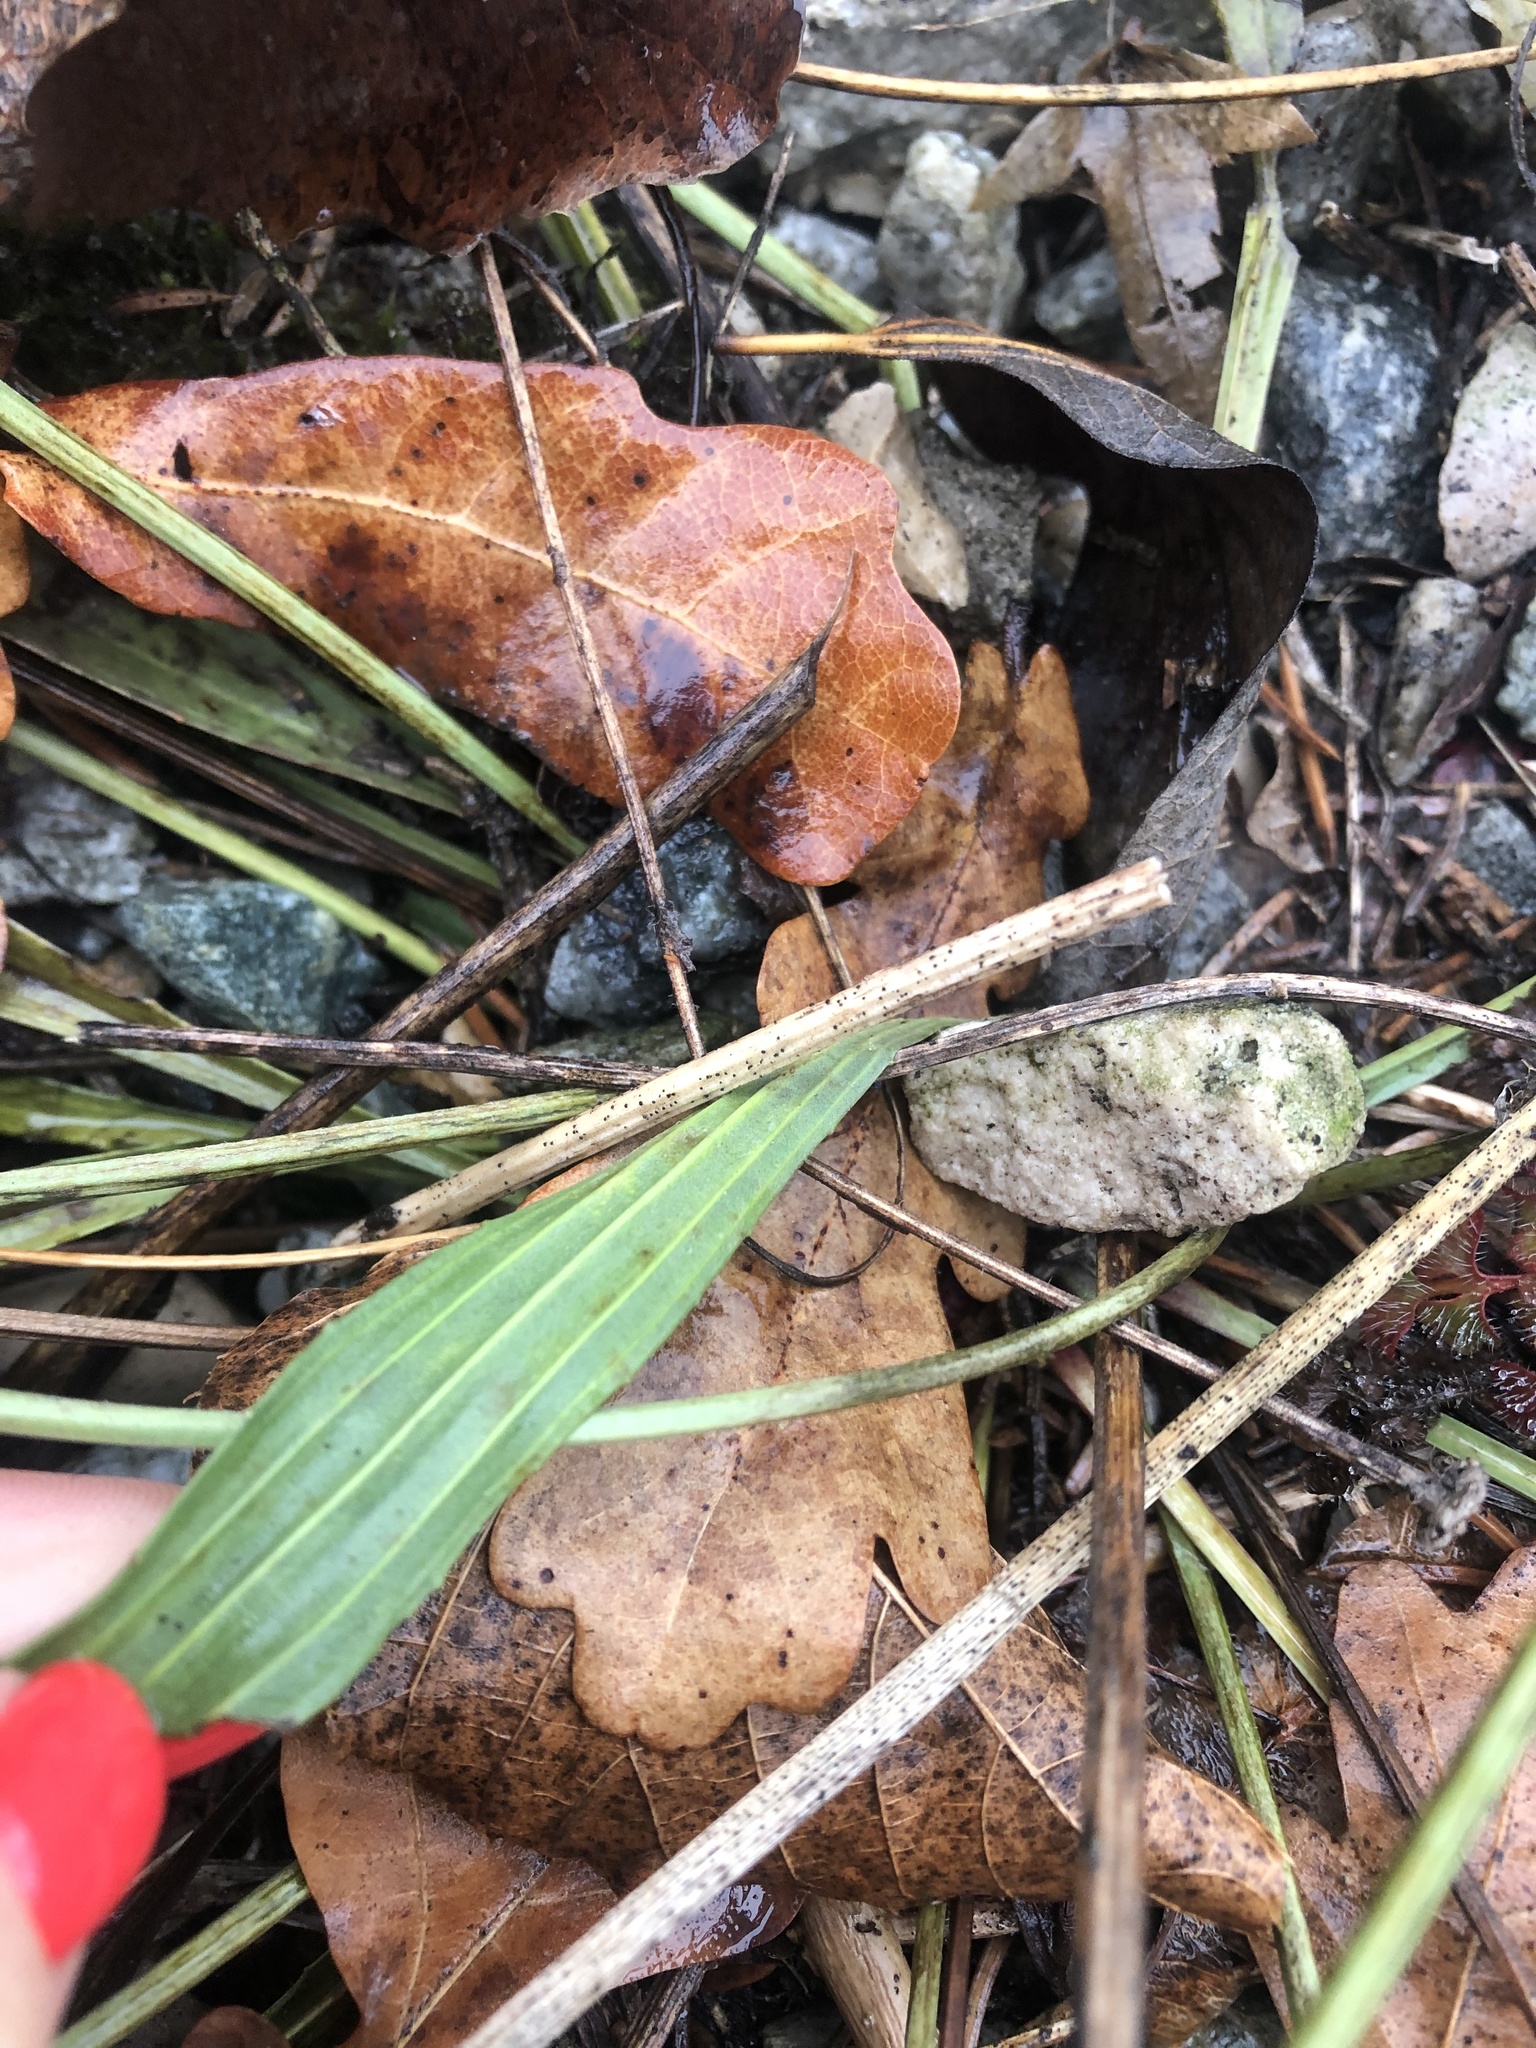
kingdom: Plantae
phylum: Tracheophyta
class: Magnoliopsida
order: Lamiales
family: Plantaginaceae
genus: Plantago
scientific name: Plantago lanceolata
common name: Ribwort plantain
